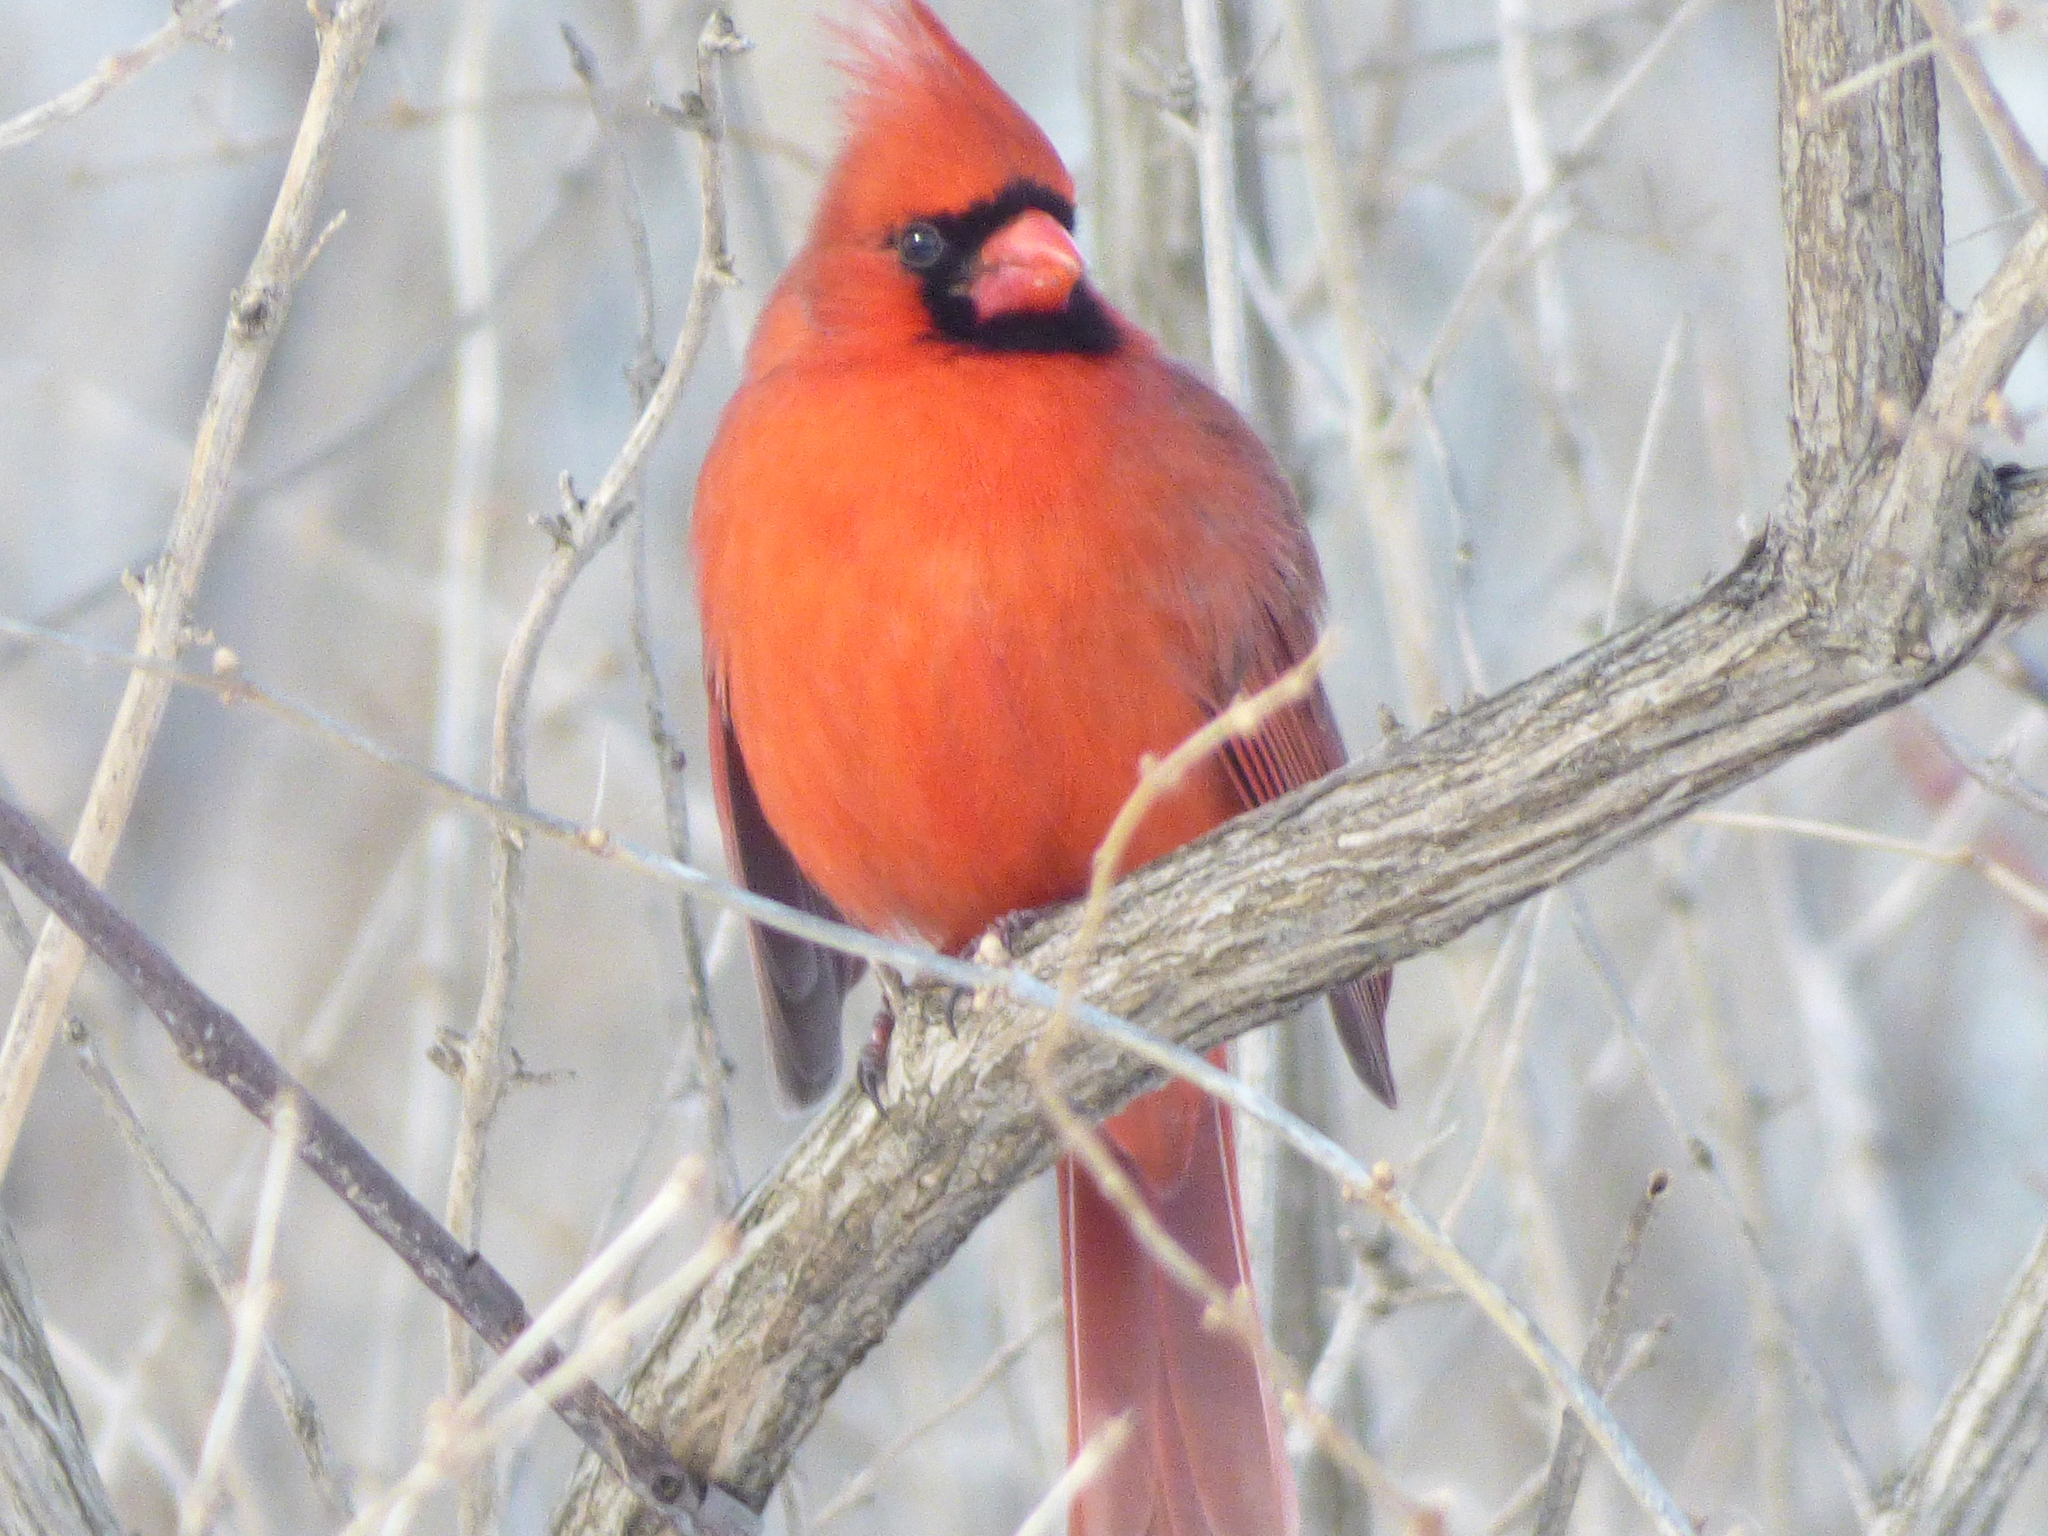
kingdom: Animalia
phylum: Chordata
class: Aves
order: Passeriformes
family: Cardinalidae
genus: Cardinalis
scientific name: Cardinalis cardinalis
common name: Northern cardinal
